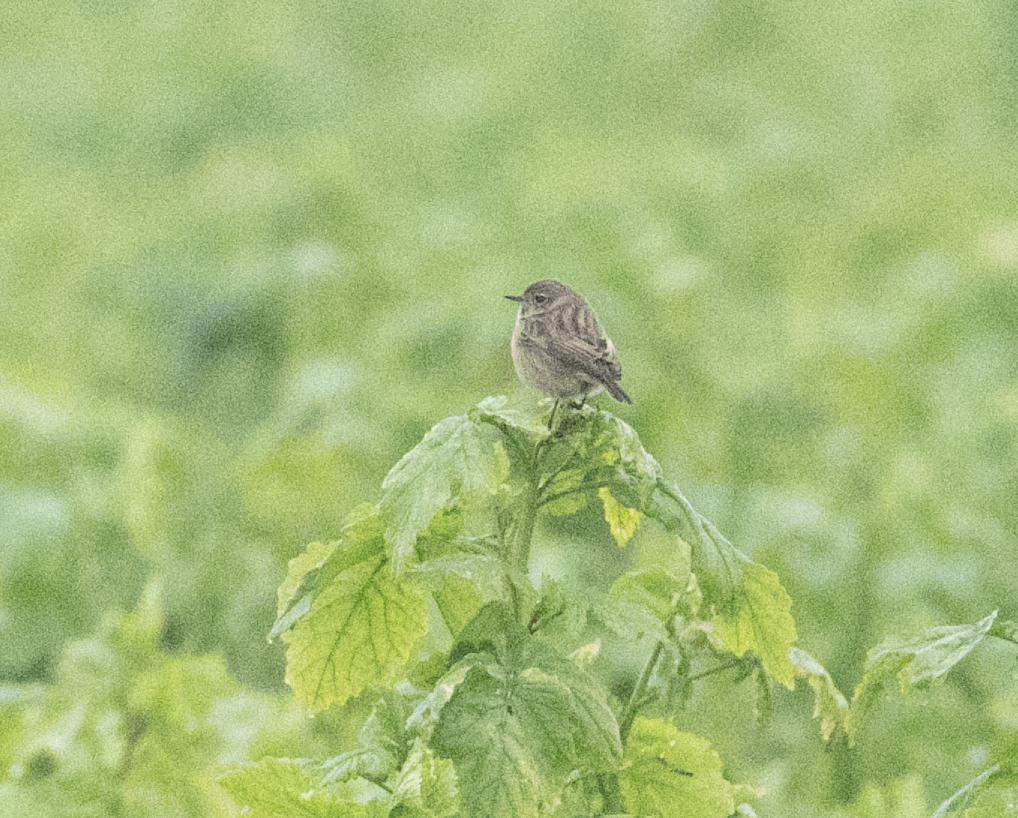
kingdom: Animalia
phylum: Chordata
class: Aves
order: Passeriformes
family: Muscicapidae
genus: Saxicola
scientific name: Saxicola rubicola
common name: European stonechat
